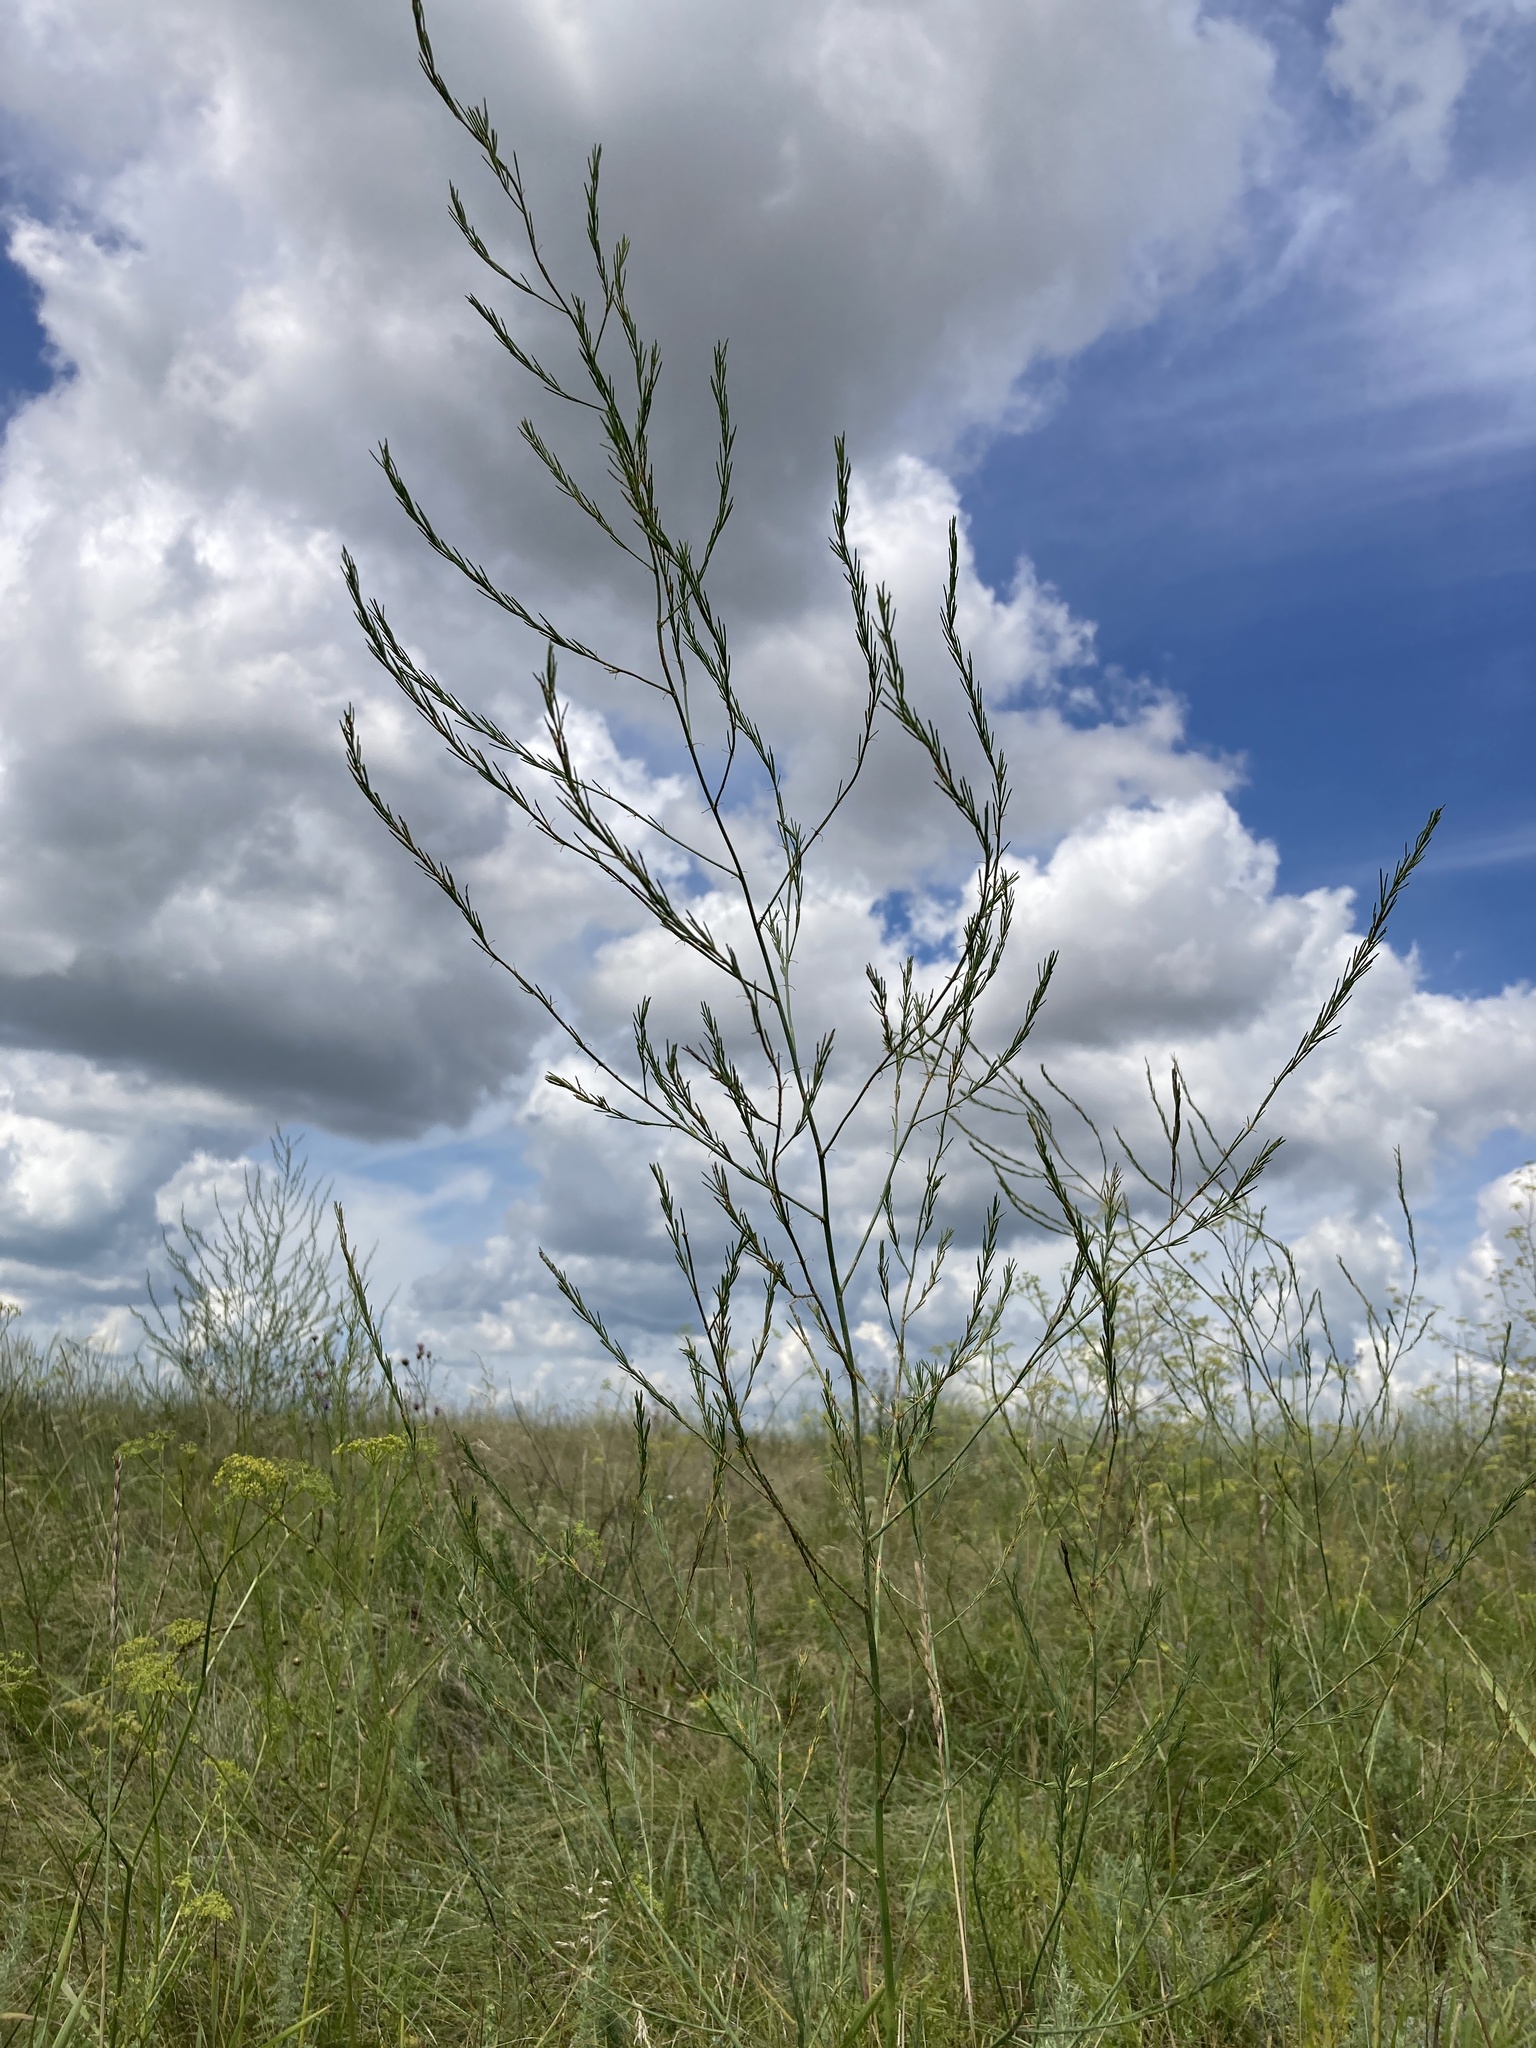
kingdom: Plantae
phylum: Tracheophyta
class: Liliopsida
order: Asparagales
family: Asparagaceae
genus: Asparagus
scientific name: Asparagus officinalis
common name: Garden asparagus
